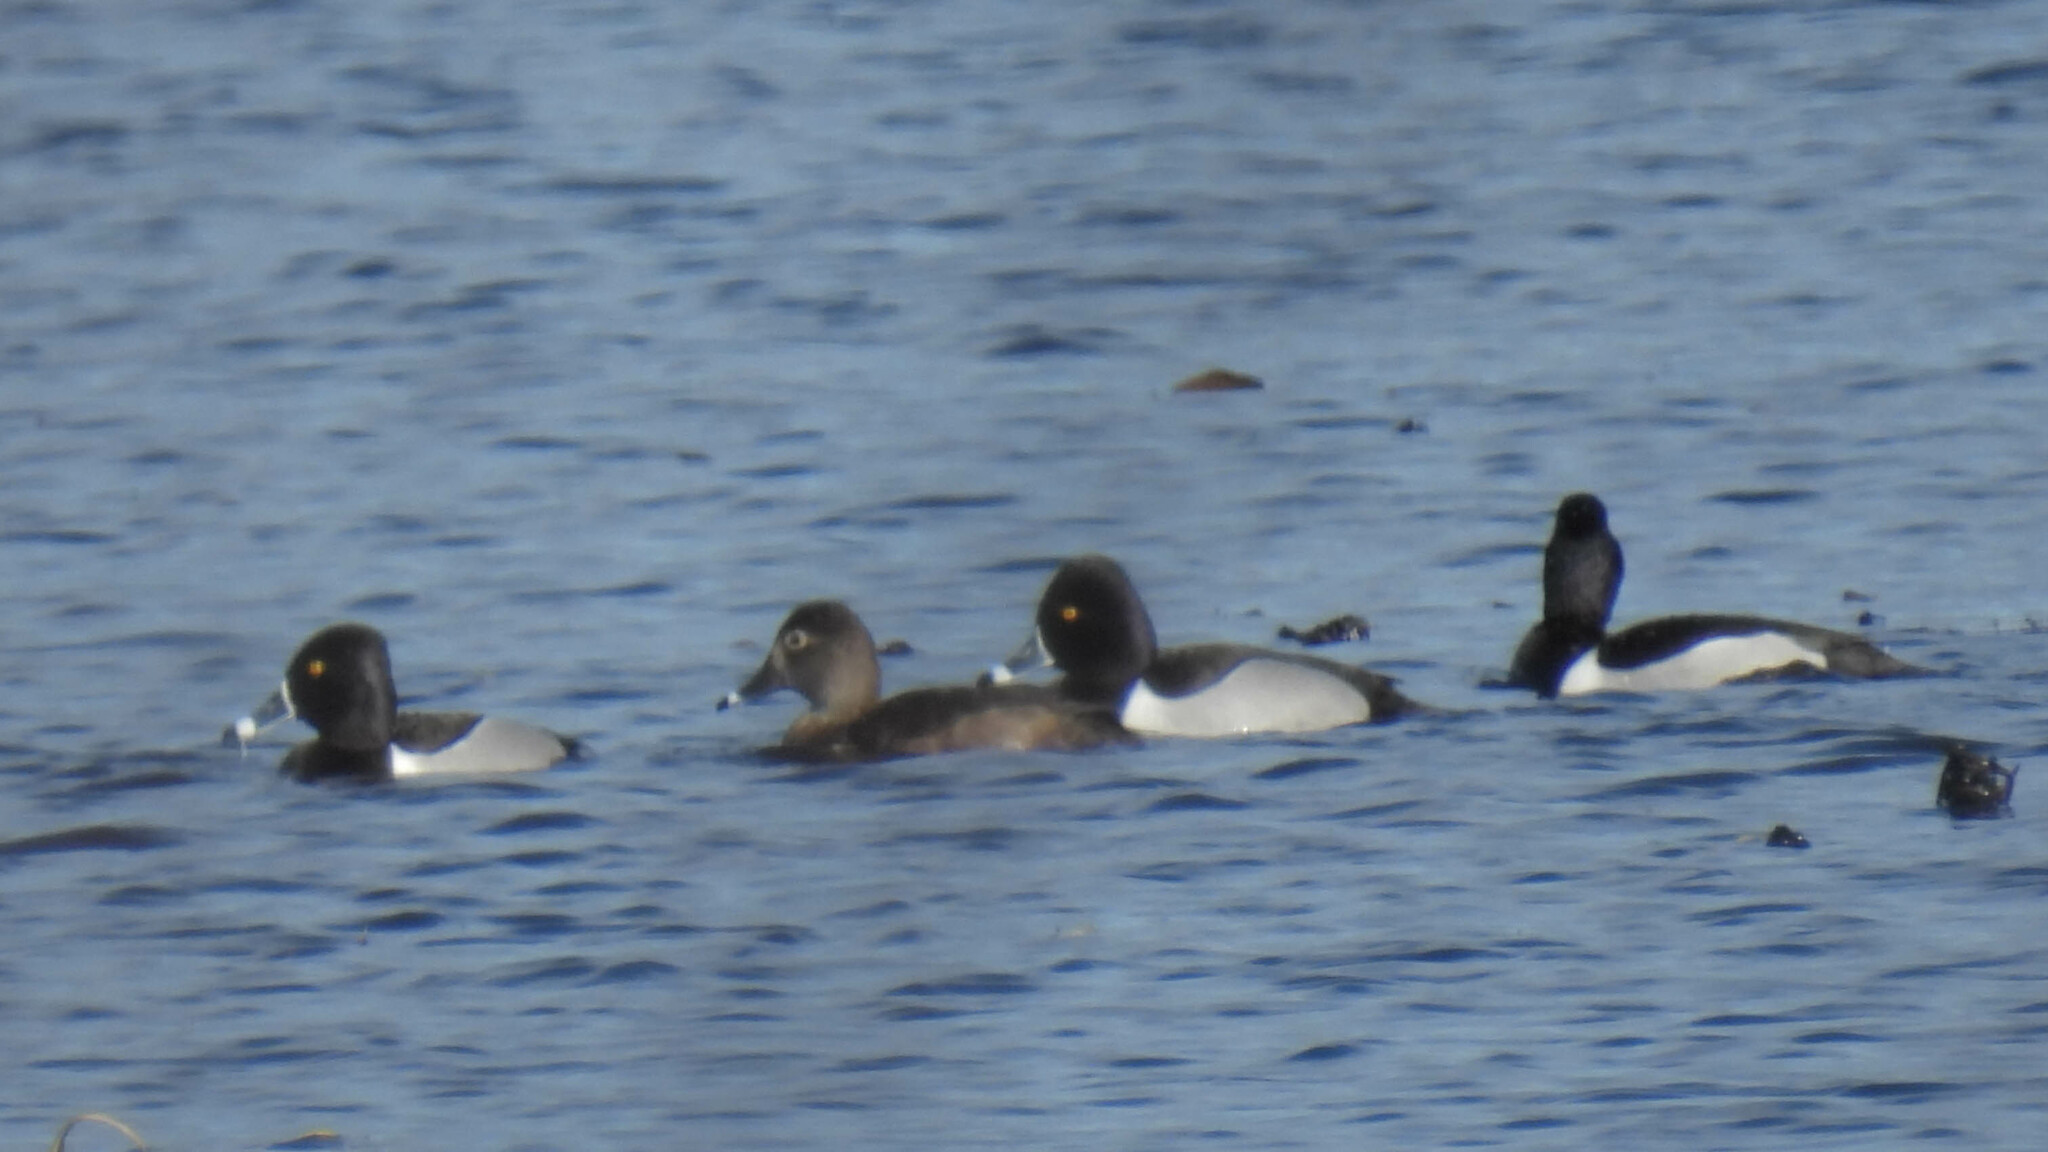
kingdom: Animalia
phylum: Chordata
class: Aves
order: Anseriformes
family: Anatidae
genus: Aythya
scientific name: Aythya collaris
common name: Ring-necked duck
